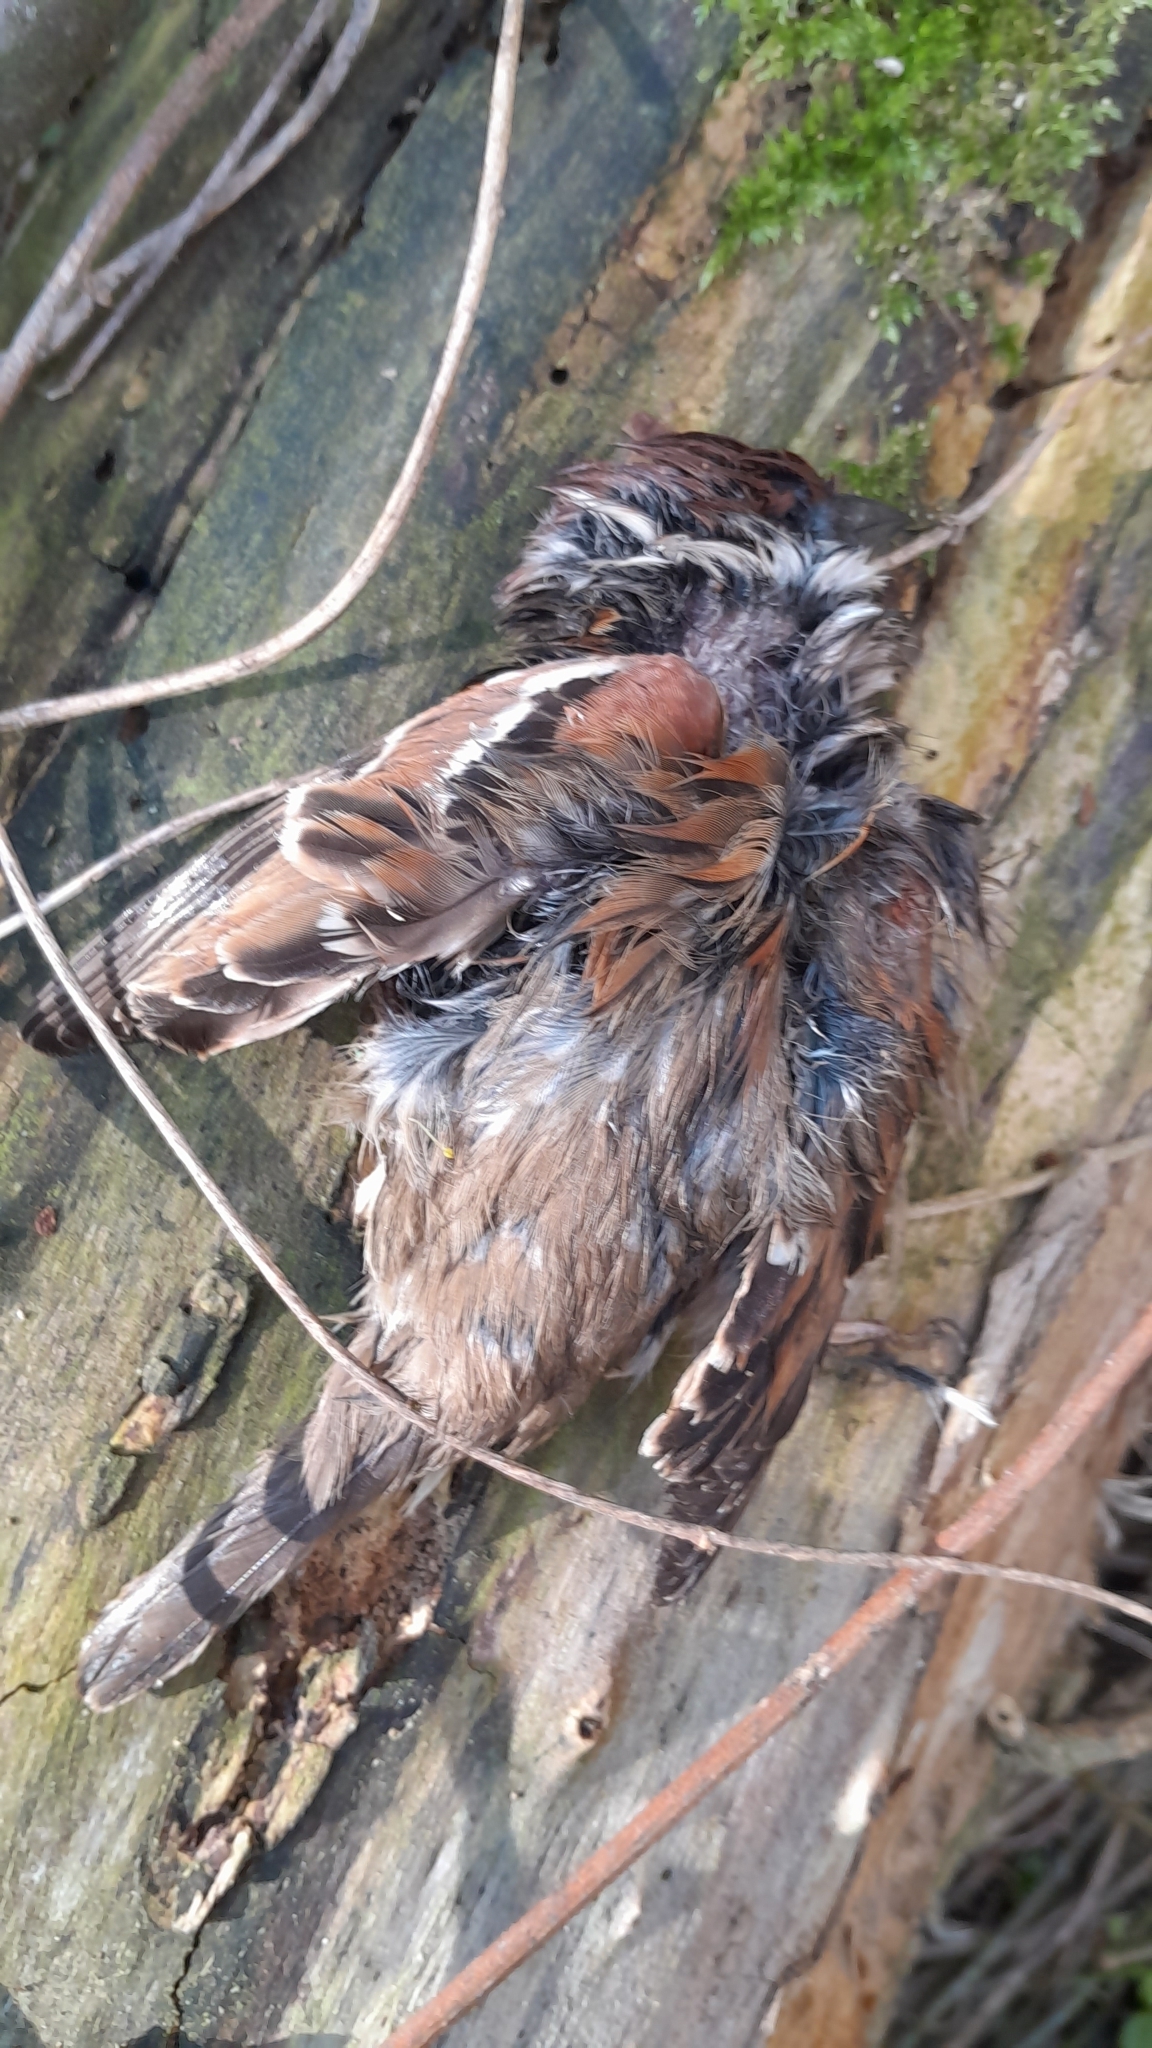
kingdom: Animalia
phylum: Chordata
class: Aves
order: Passeriformes
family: Passeridae
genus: Passer
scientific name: Passer montanus
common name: Eurasian tree sparrow
